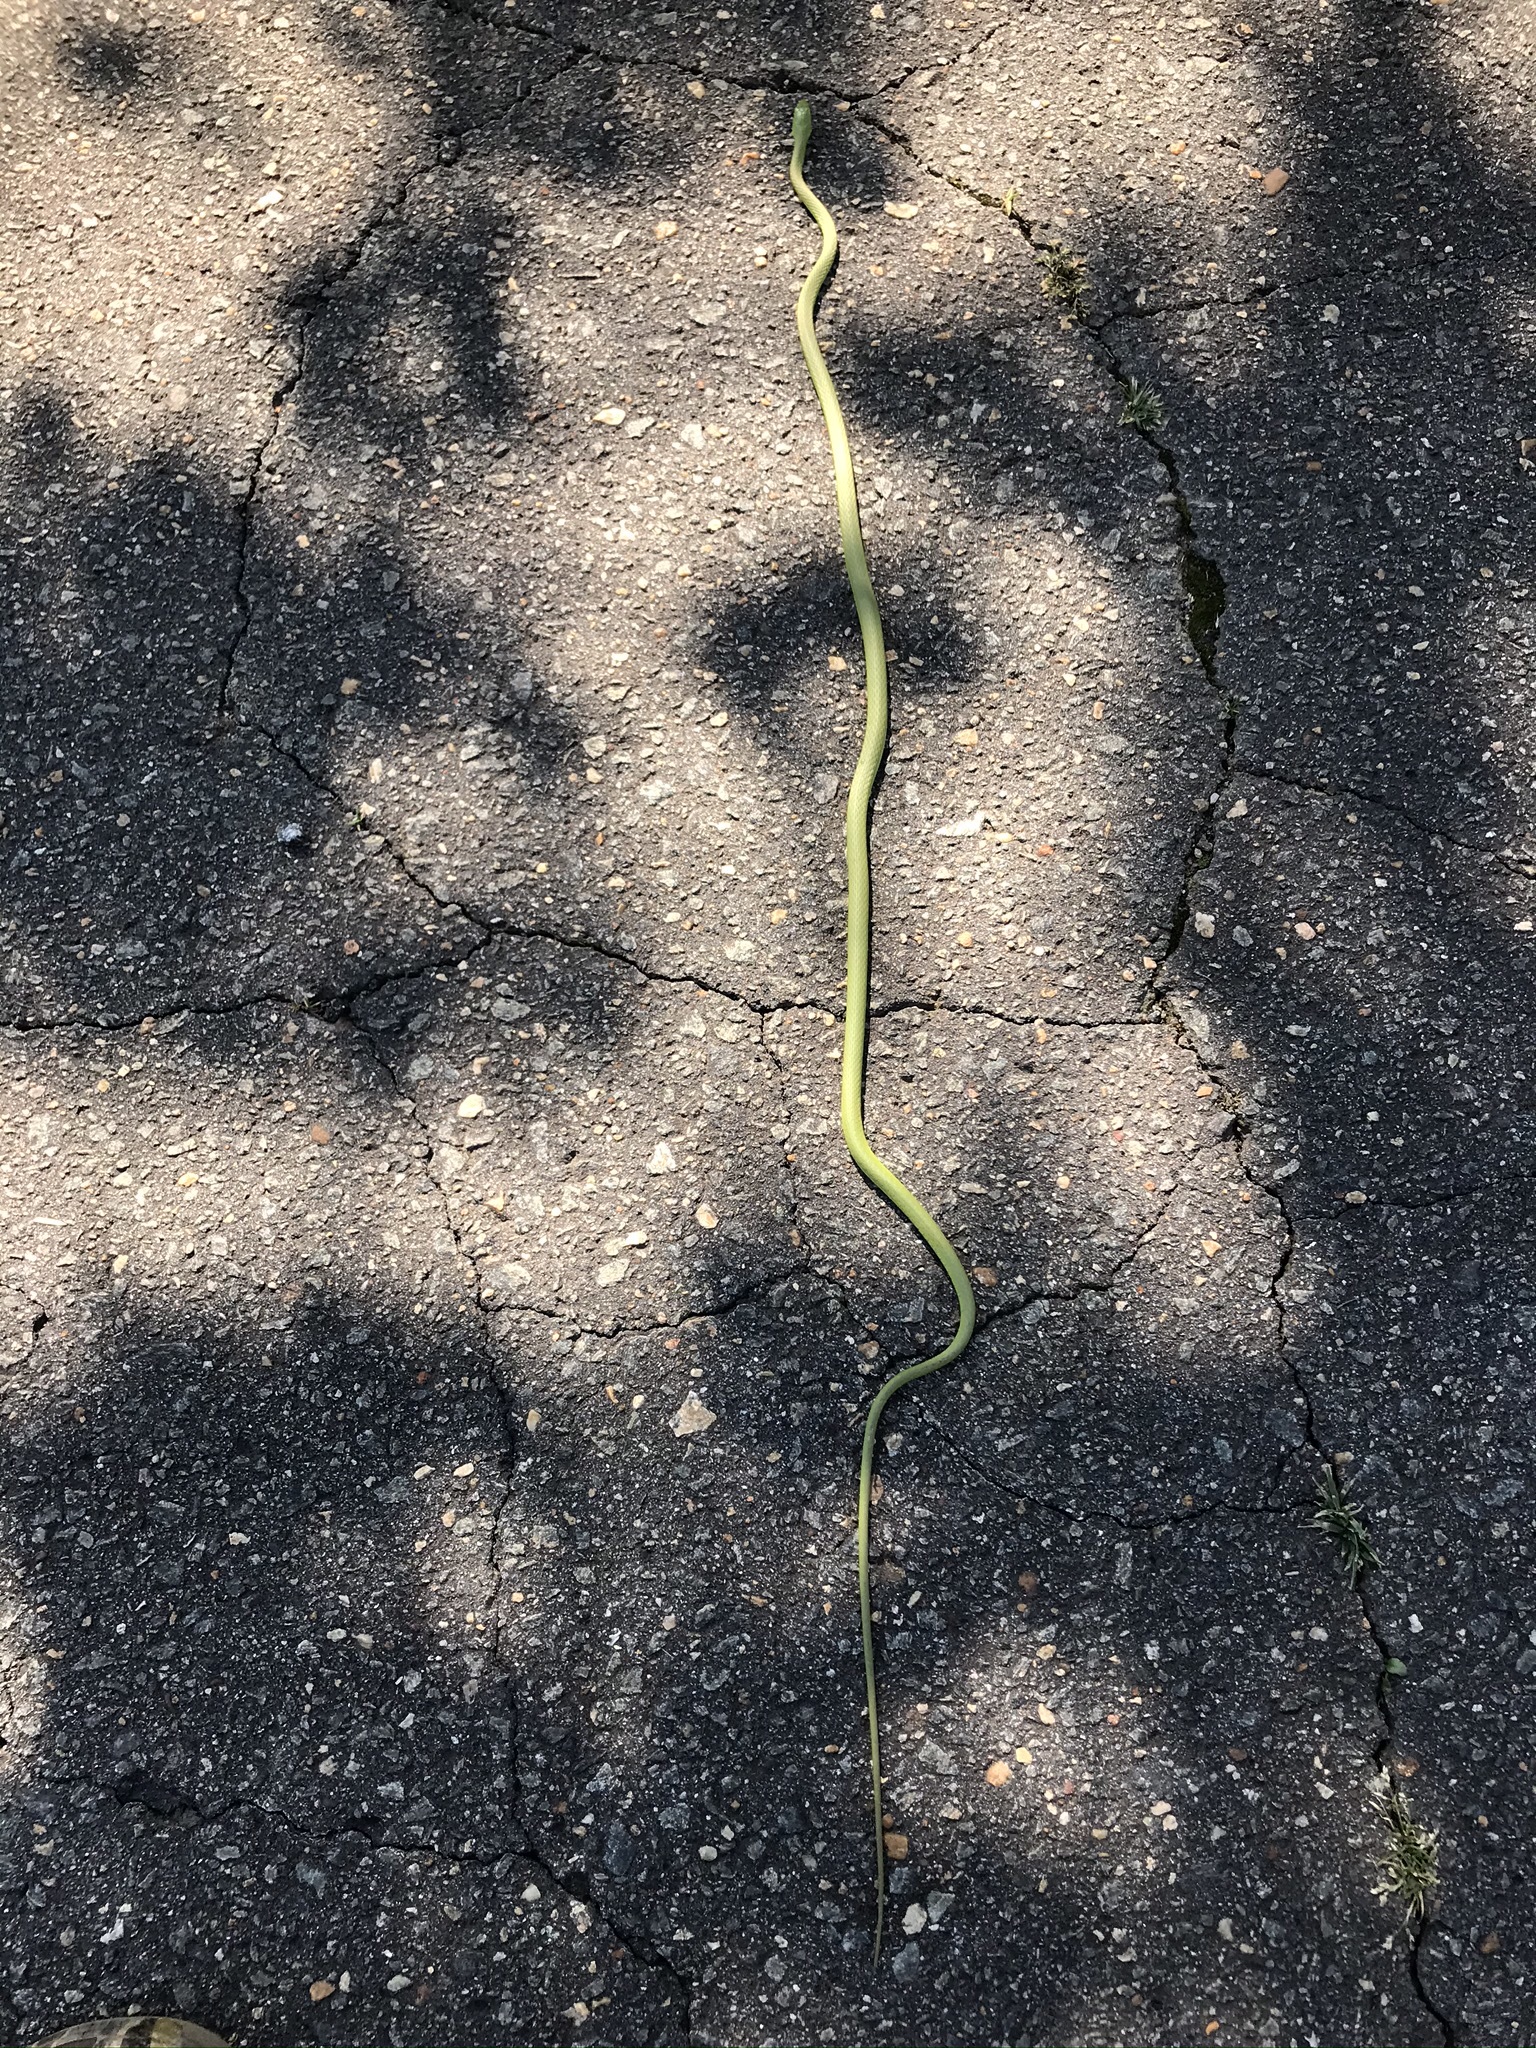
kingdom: Animalia
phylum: Chordata
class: Squamata
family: Colubridae
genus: Opheodrys
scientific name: Opheodrys aestivus
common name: Rough greensnake
